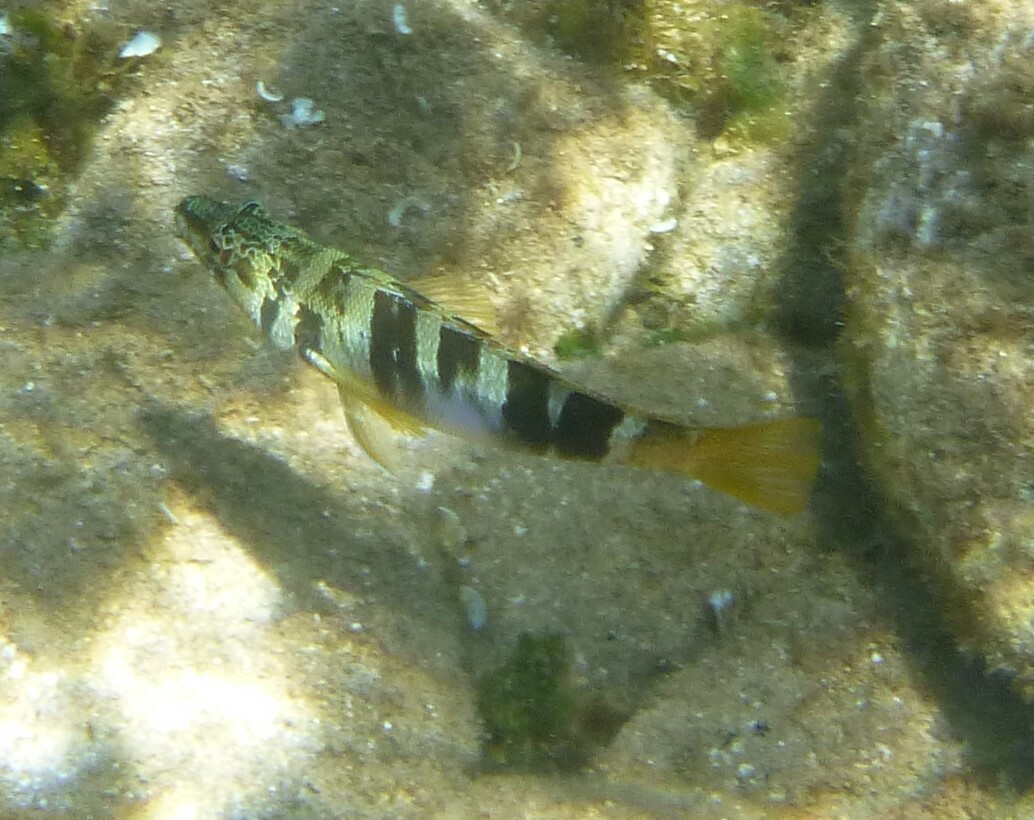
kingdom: Animalia
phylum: Chordata
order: Perciformes
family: Serranidae
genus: Serranus
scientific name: Serranus scriba
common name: Painted comber
